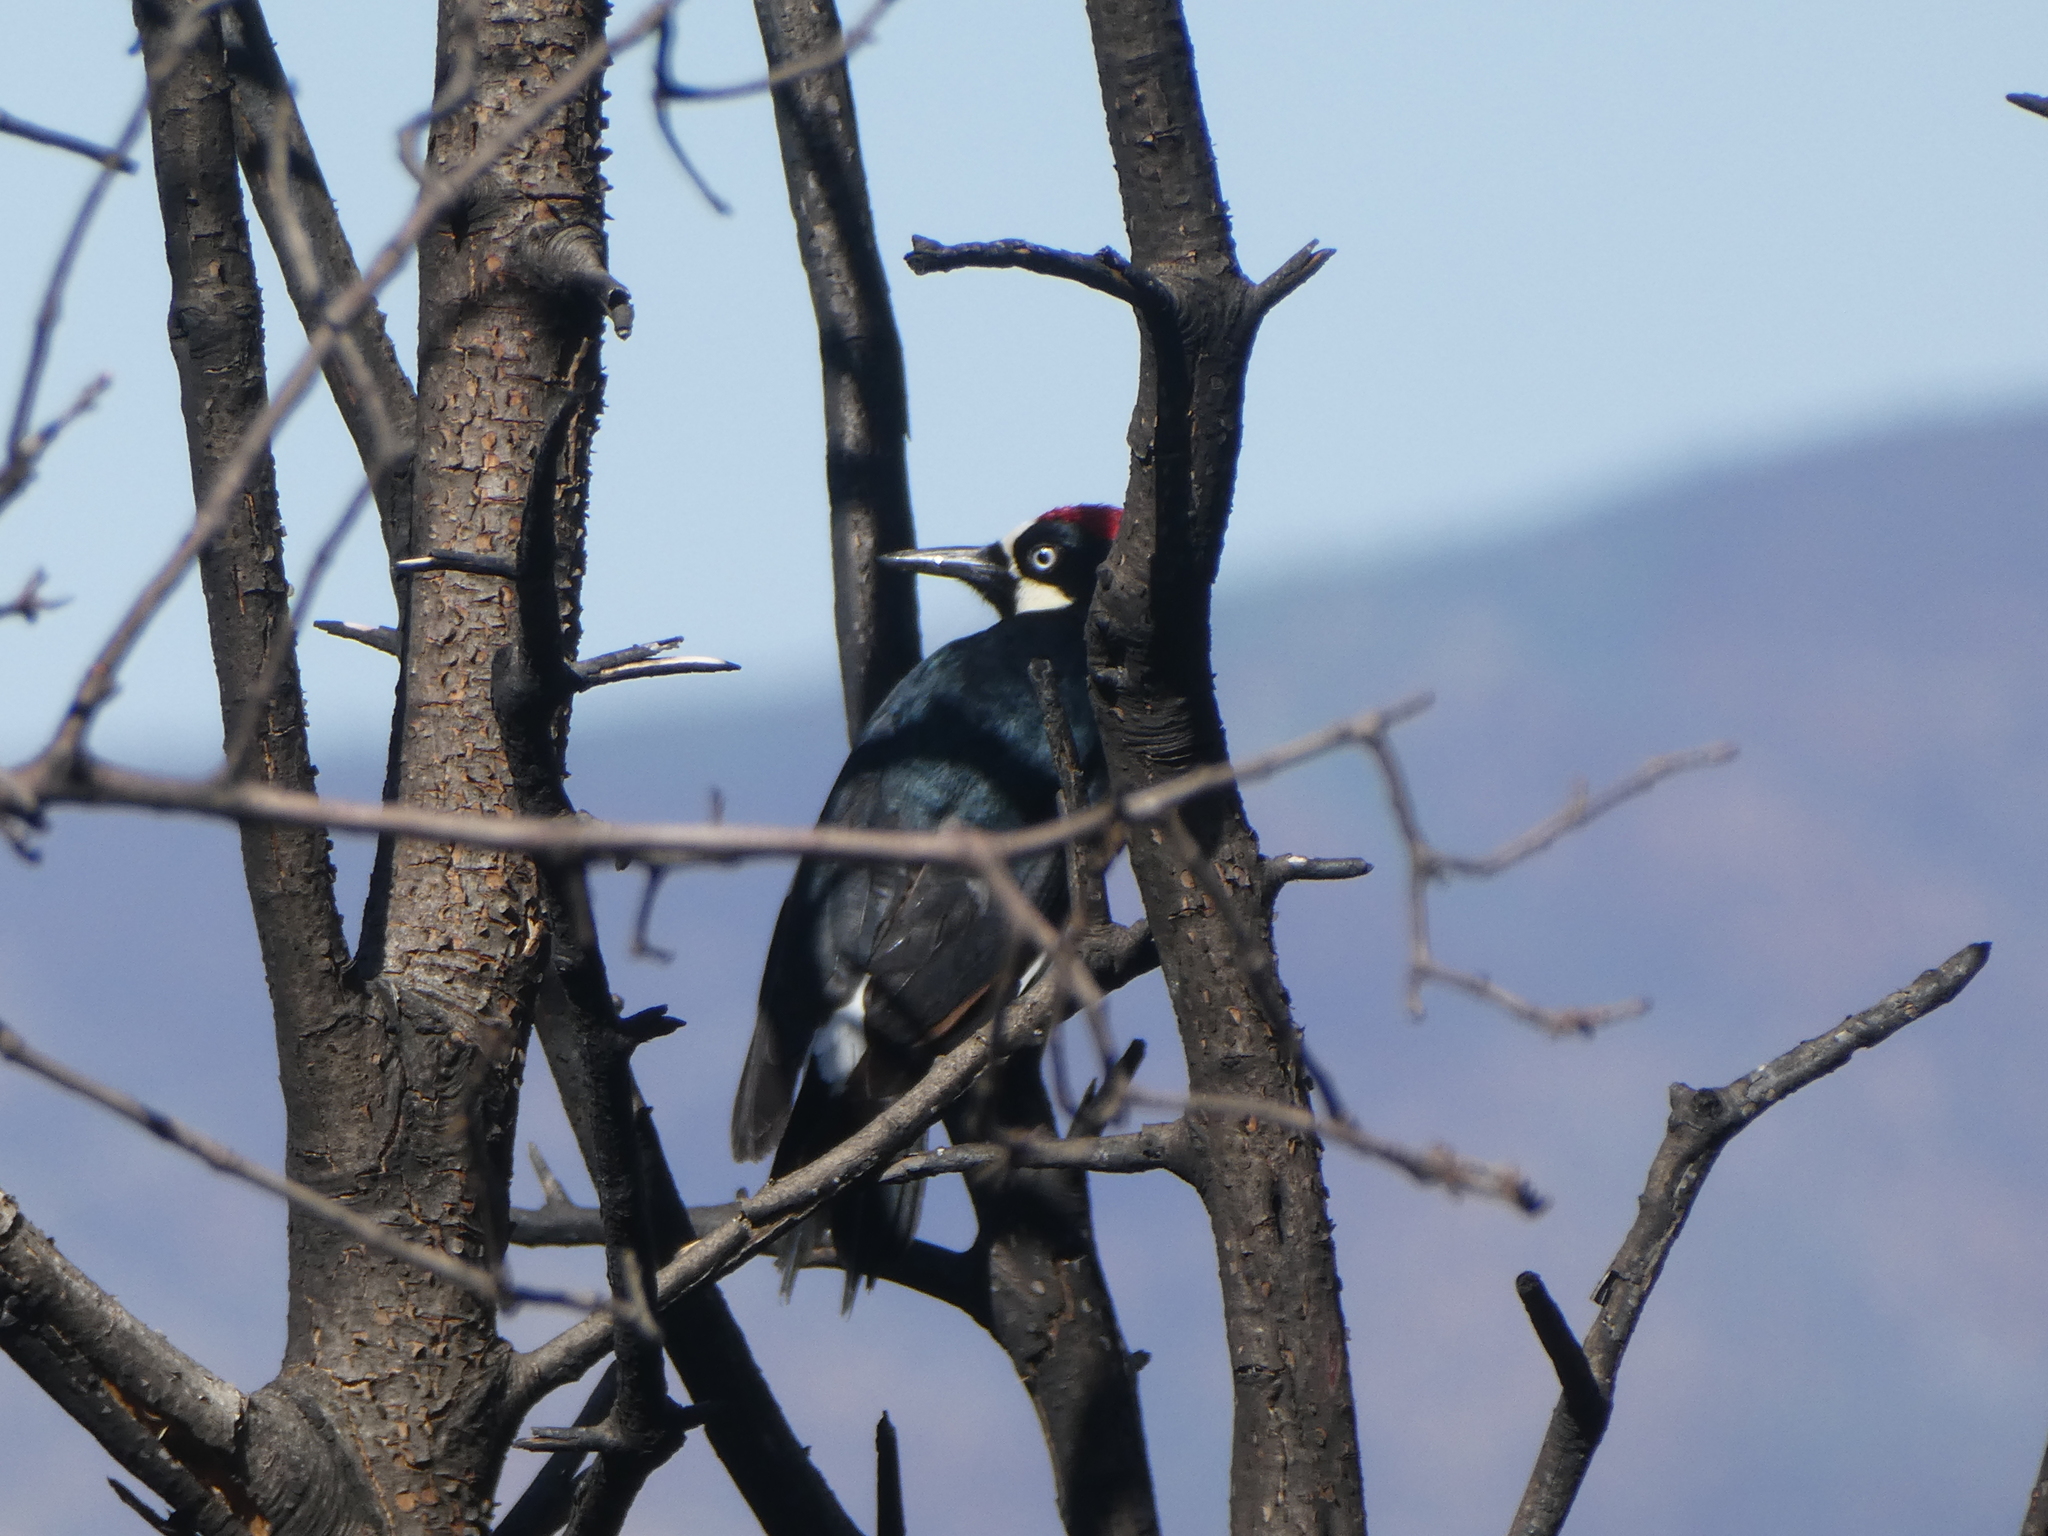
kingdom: Animalia
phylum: Chordata
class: Aves
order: Piciformes
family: Picidae
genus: Melanerpes
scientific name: Melanerpes formicivorus
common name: Acorn woodpecker
